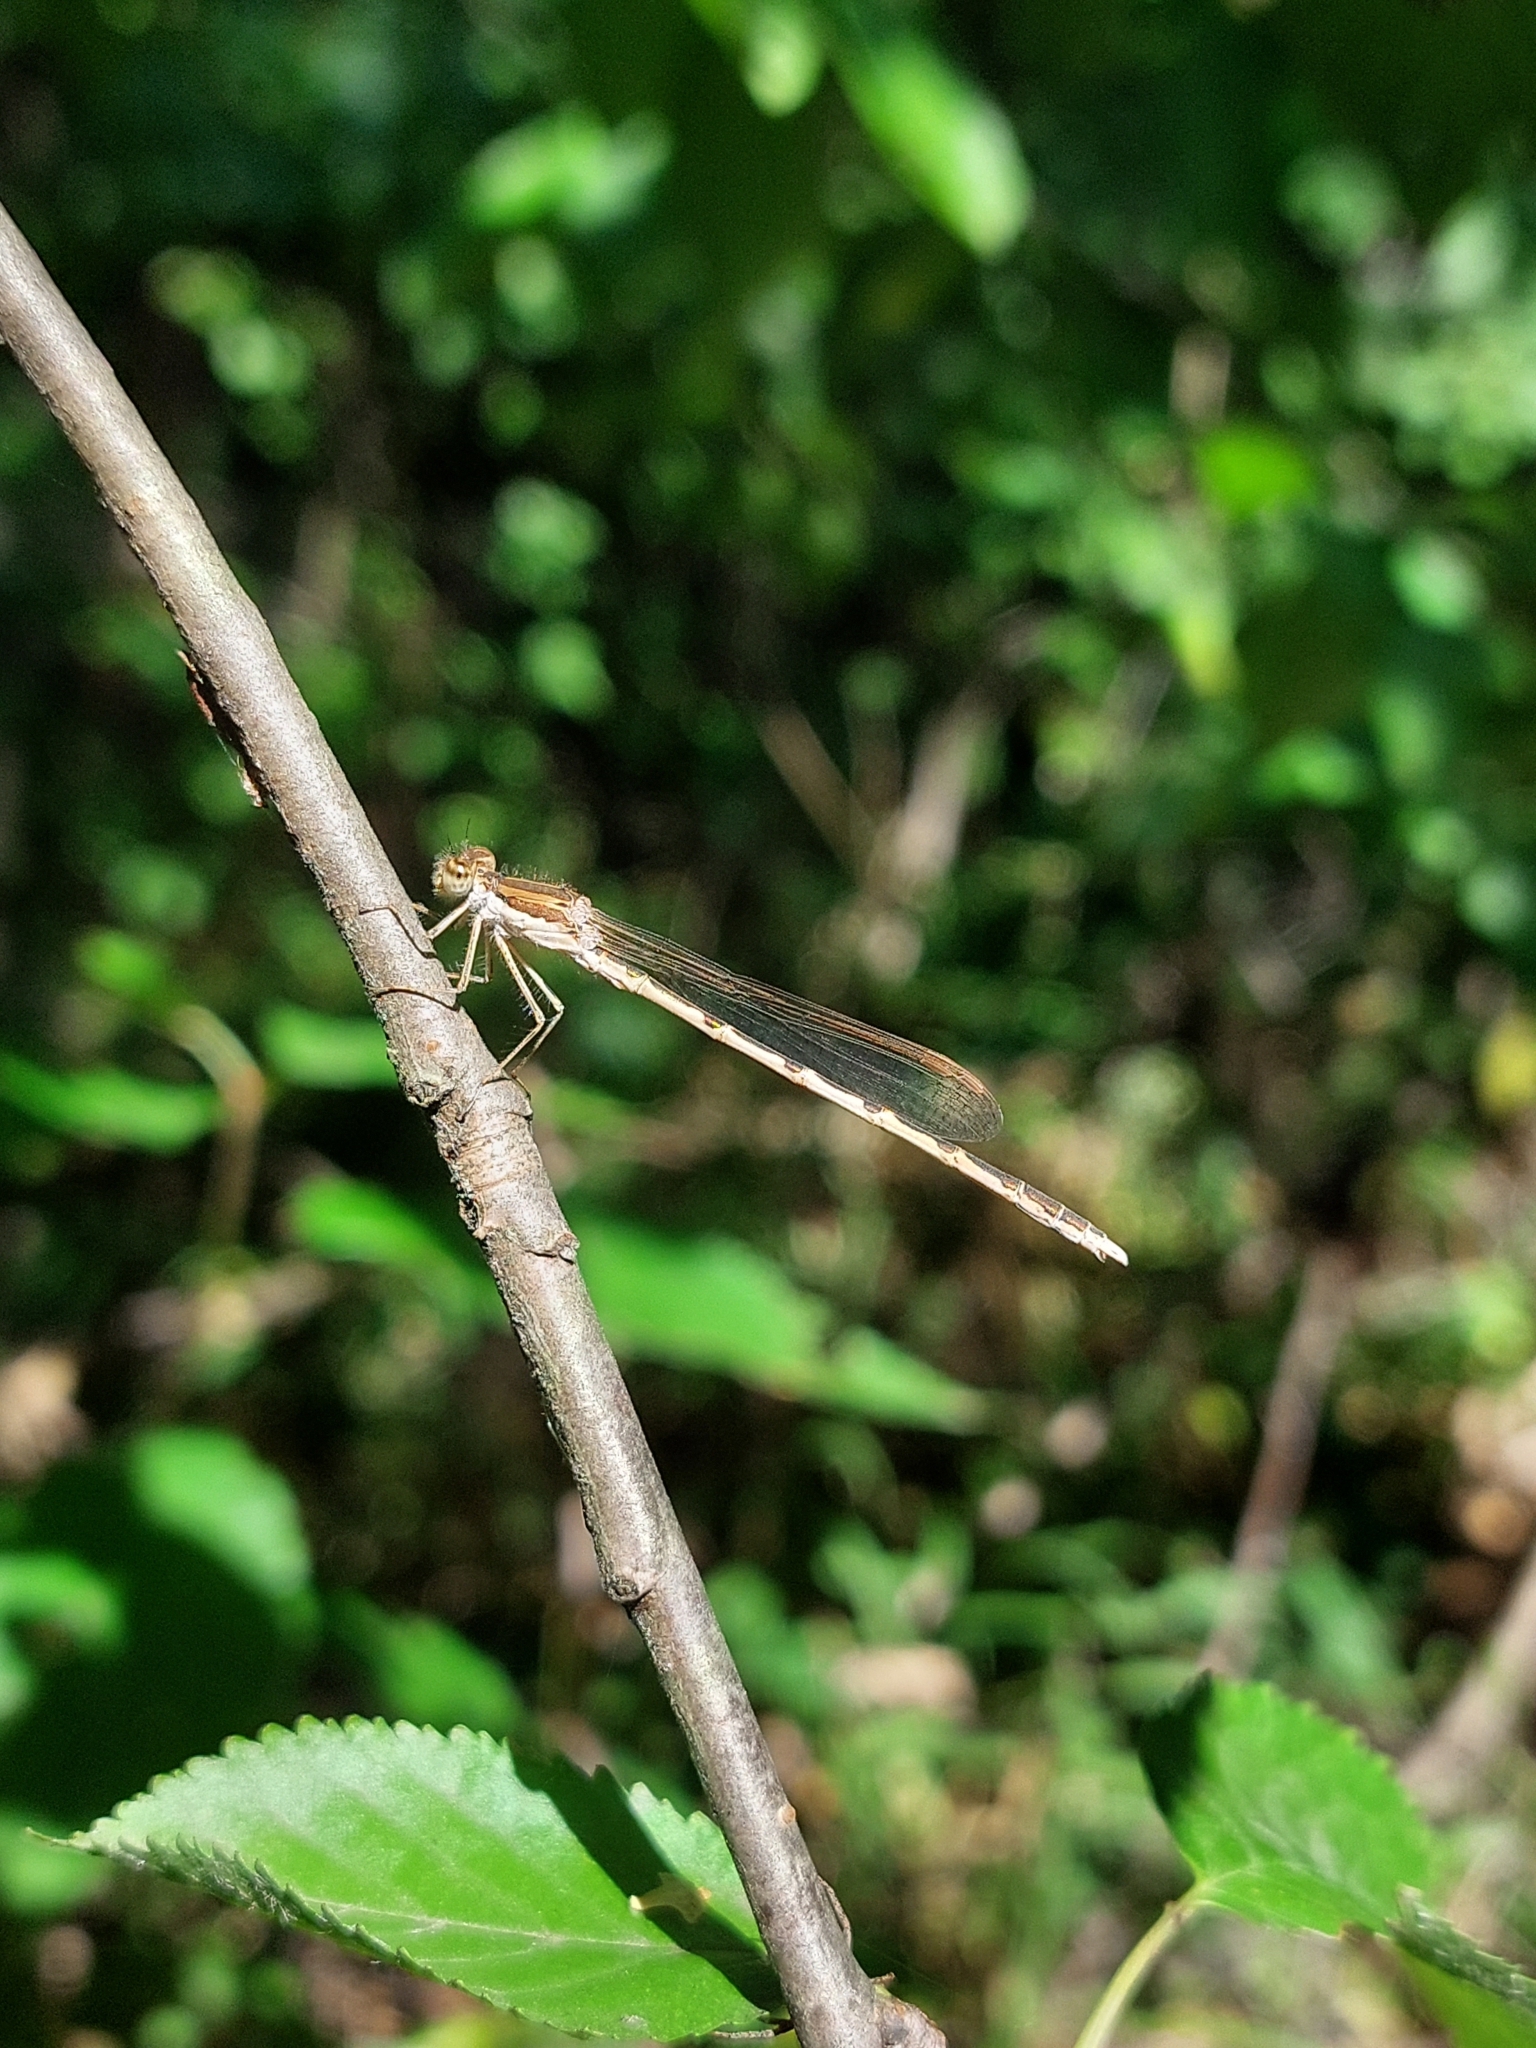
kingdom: Animalia
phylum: Arthropoda
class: Insecta
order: Odonata
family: Lestidae
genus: Sympecma
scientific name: Sympecma fusca
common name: Common winter damsel
